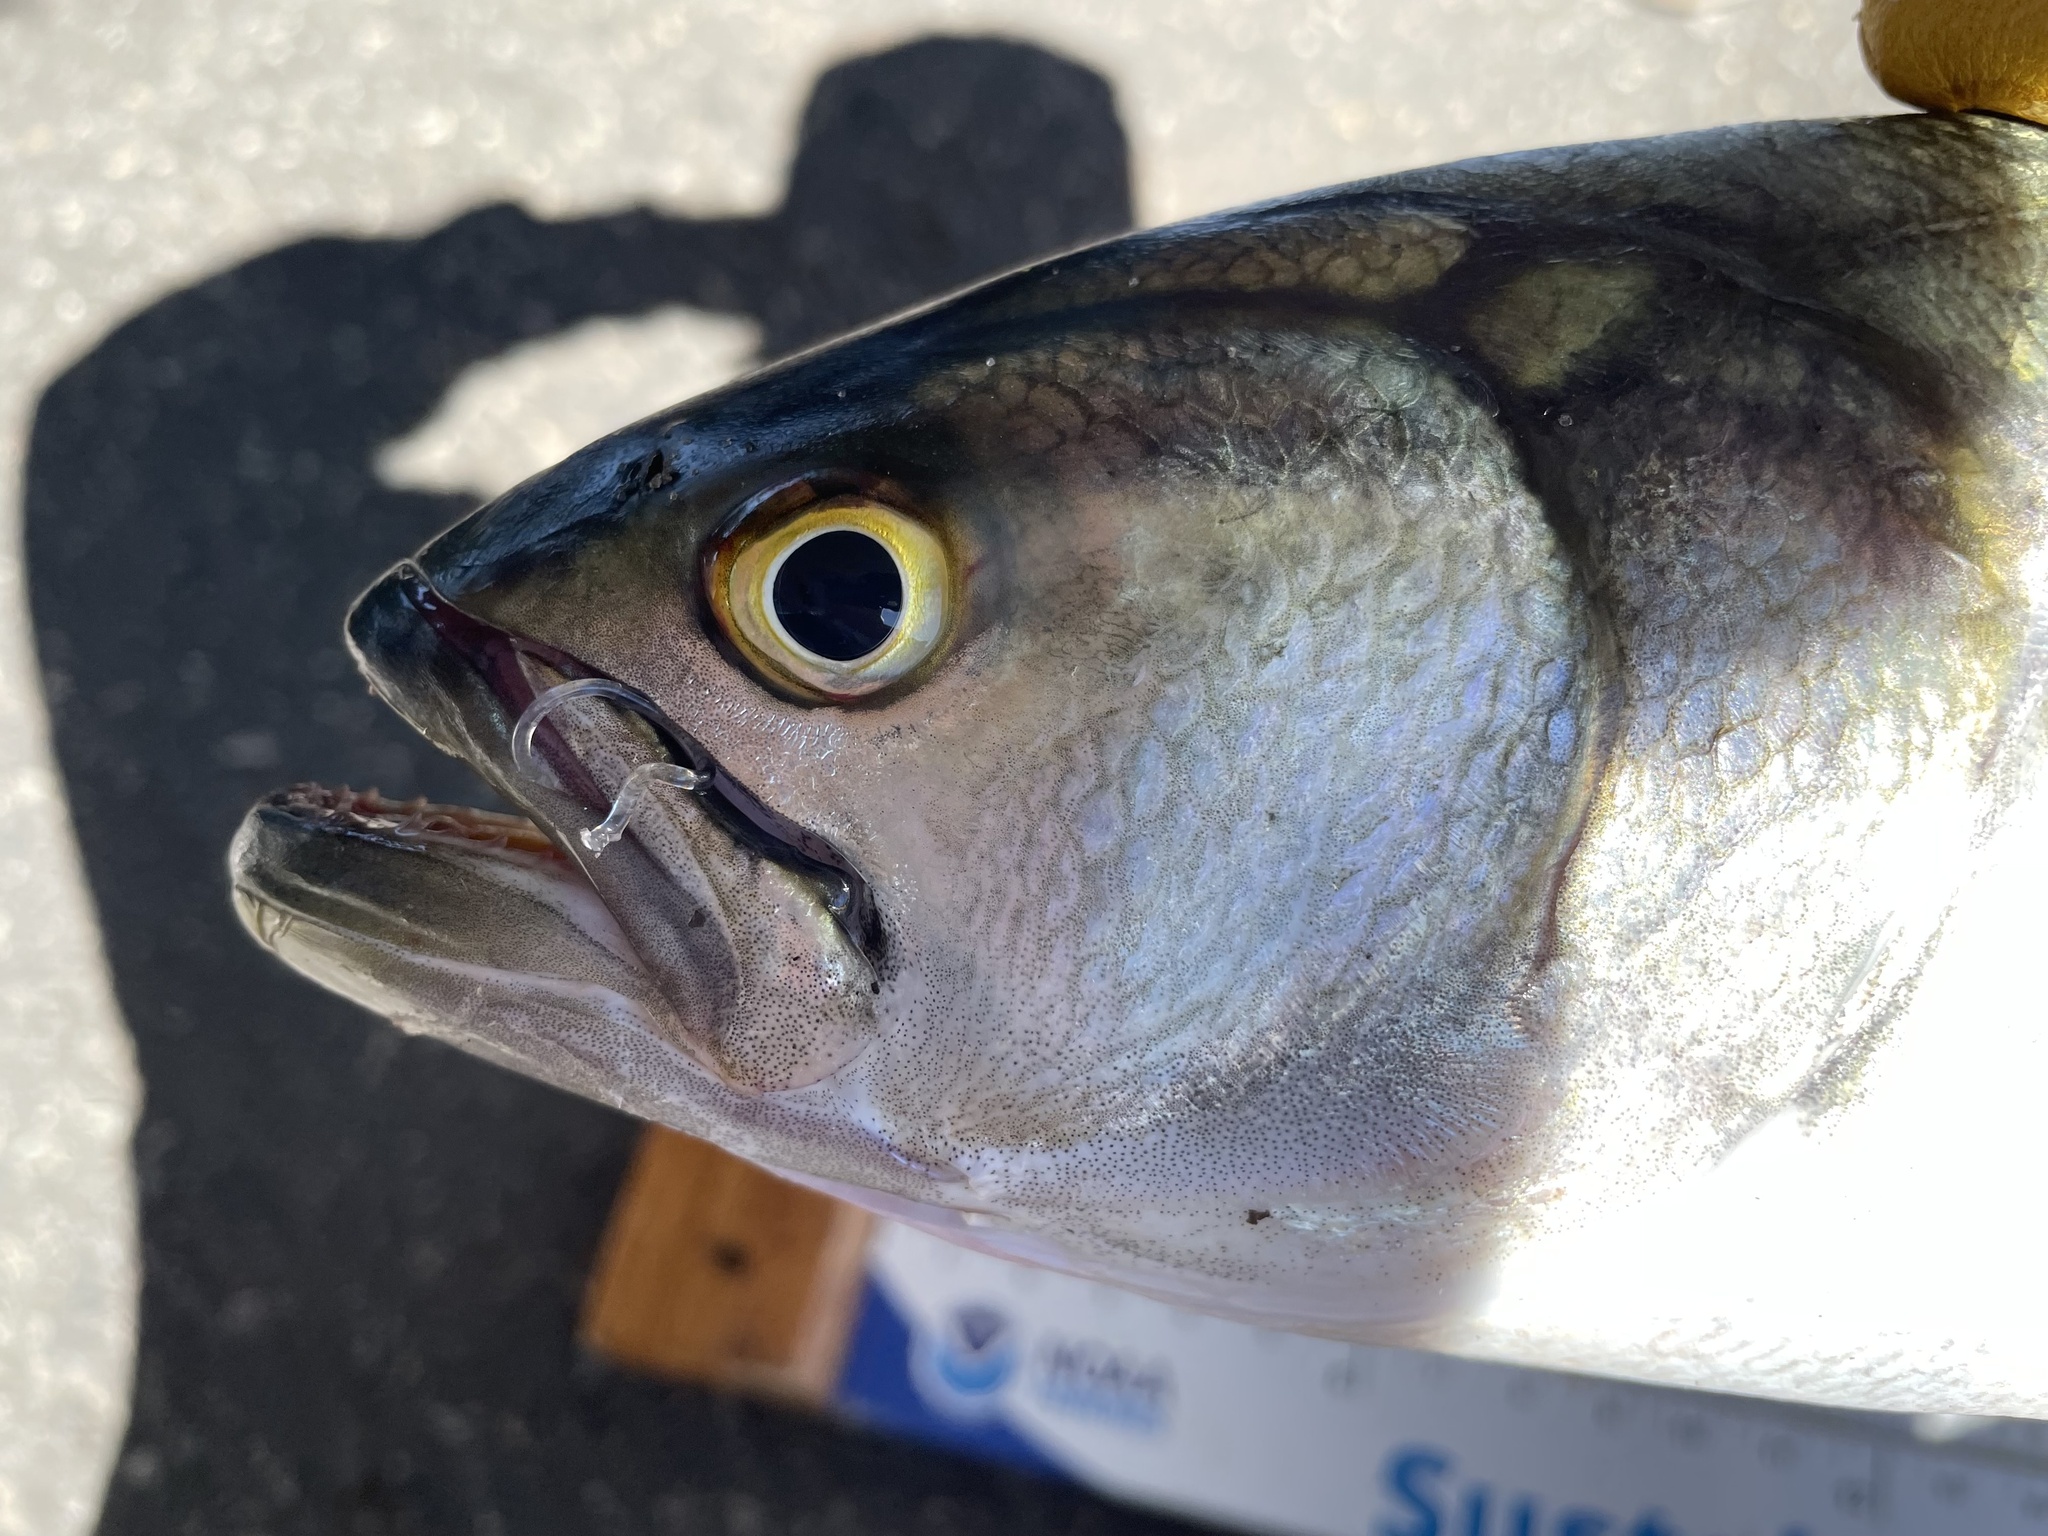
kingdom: Animalia
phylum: Chordata
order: Perciformes
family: Pomatomidae
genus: Pomatomus
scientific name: Pomatomus saltatrix
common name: Bluefish
